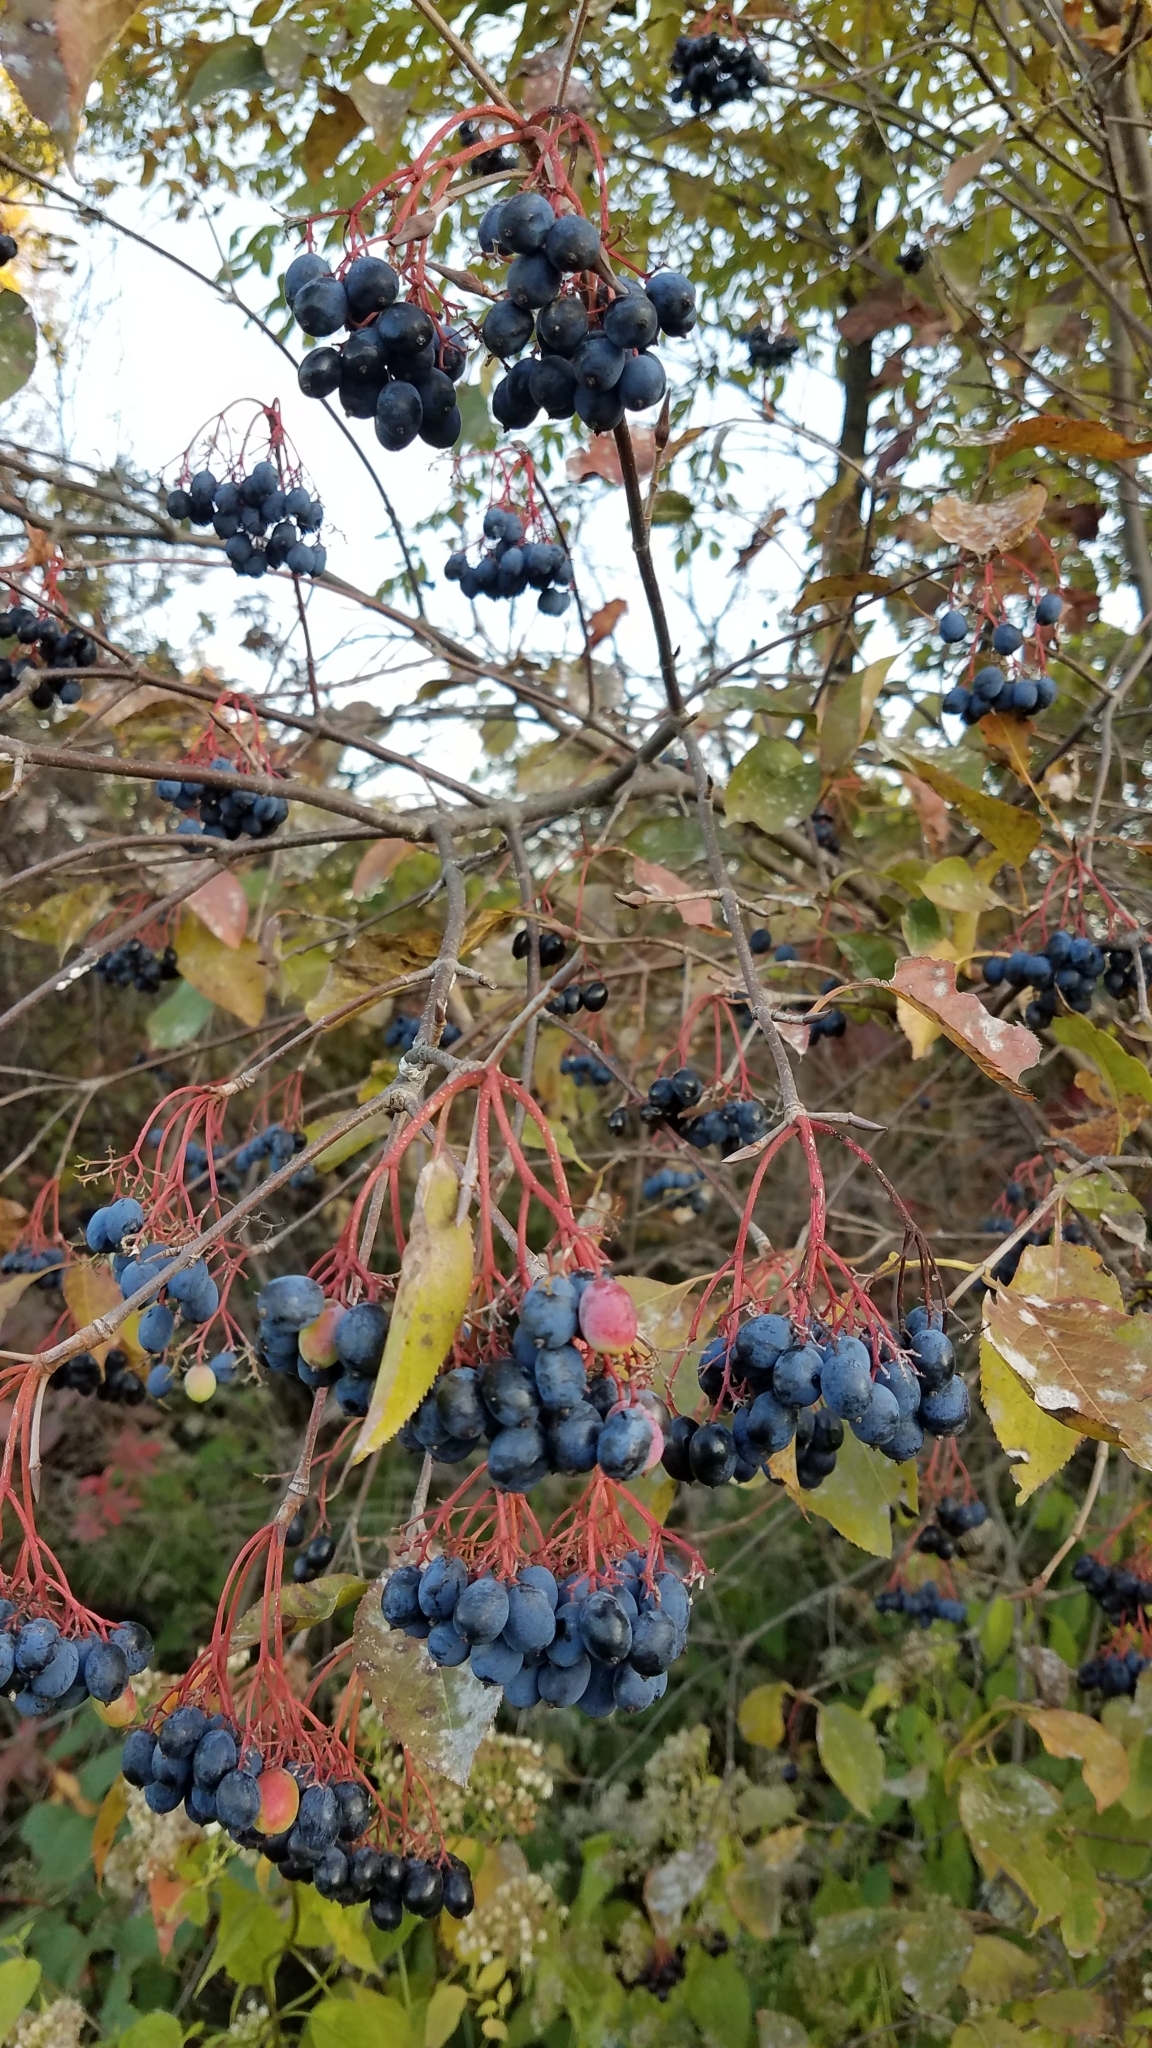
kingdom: Plantae
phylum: Tracheophyta
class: Magnoliopsida
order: Dipsacales
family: Viburnaceae
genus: Viburnum
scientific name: Viburnum lentago
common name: Black haw
